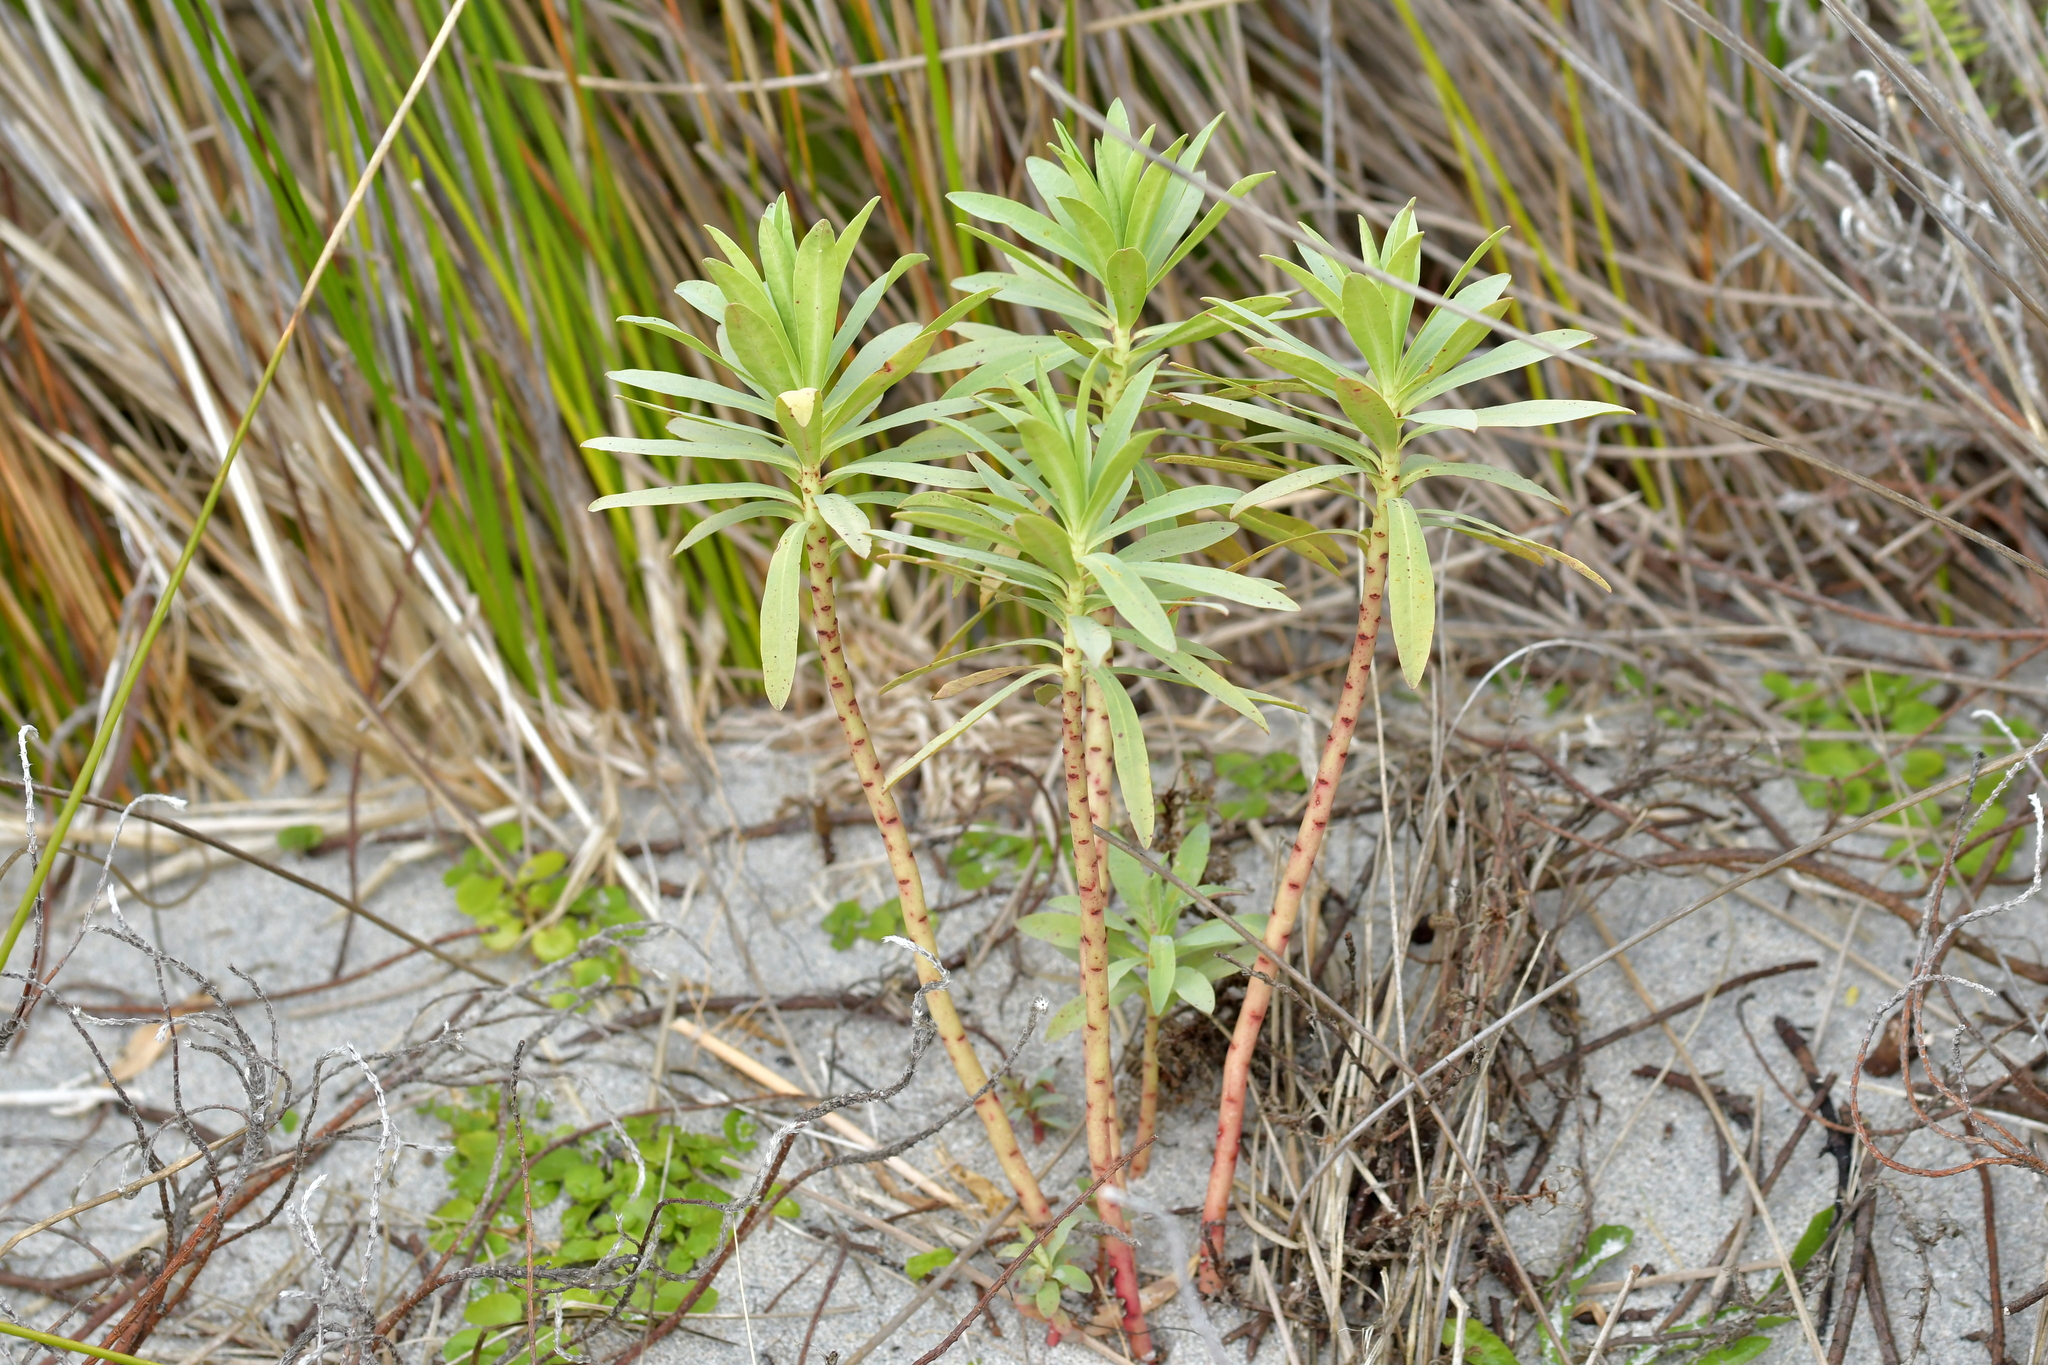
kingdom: Plantae
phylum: Tracheophyta
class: Magnoliopsida
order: Malpighiales
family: Euphorbiaceae
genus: Euphorbia
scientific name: Euphorbia glauca
